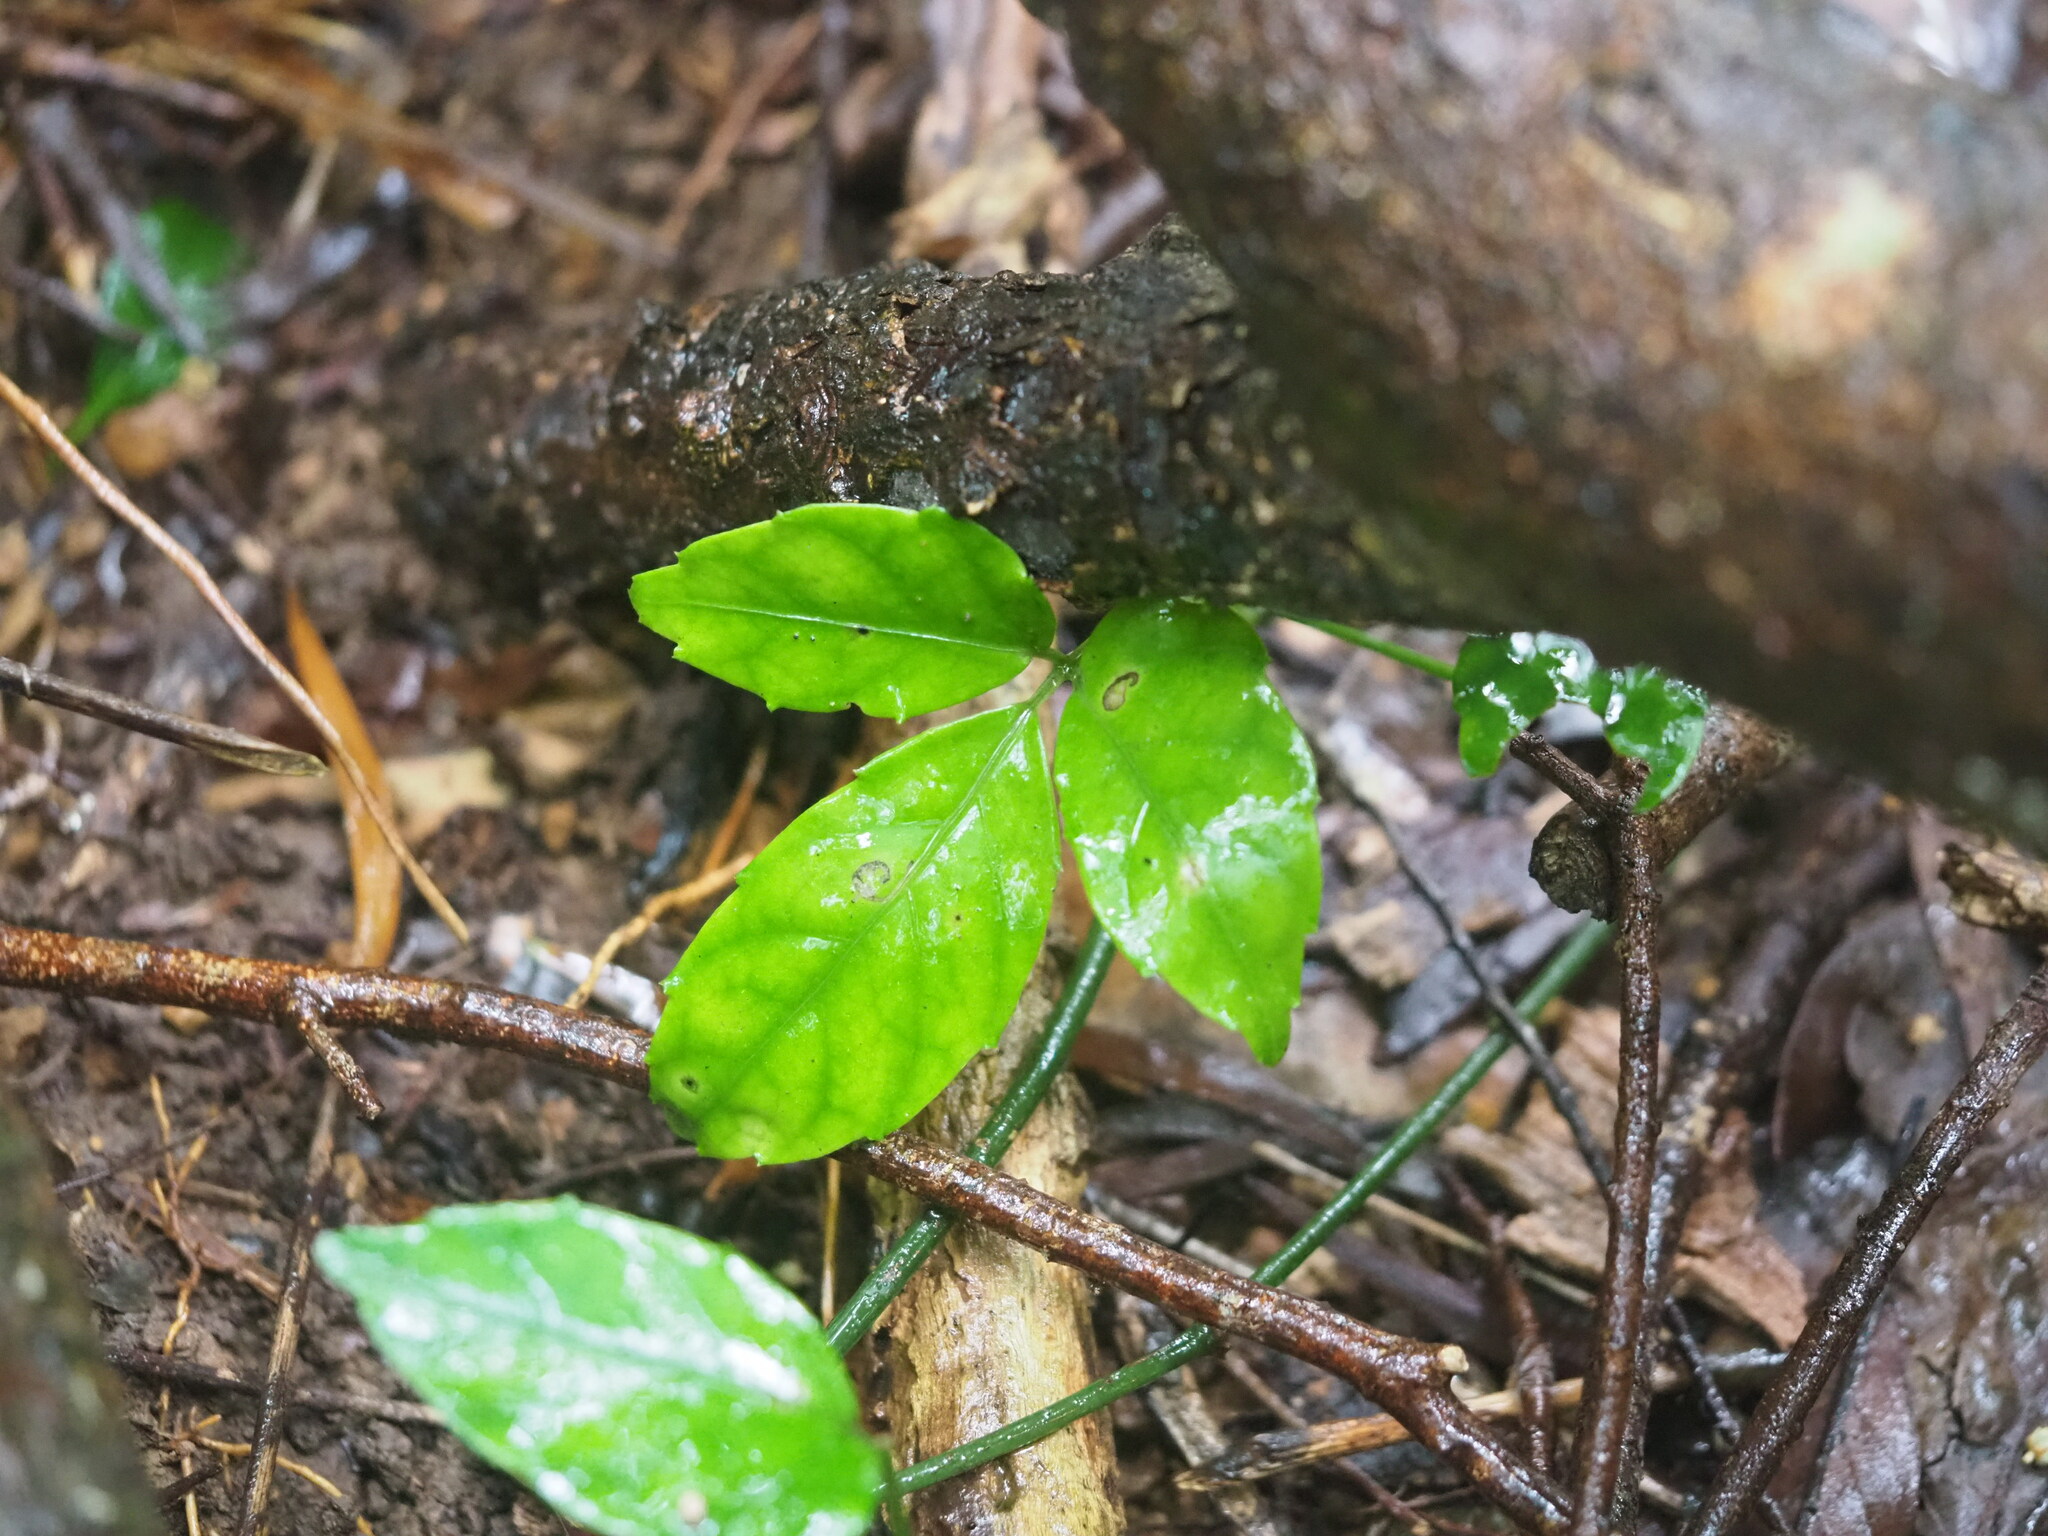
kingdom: Plantae
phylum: Tracheophyta
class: Magnoliopsida
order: Vitales
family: Vitaceae
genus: Tetrastigma
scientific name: Tetrastigma hemsleyanum
